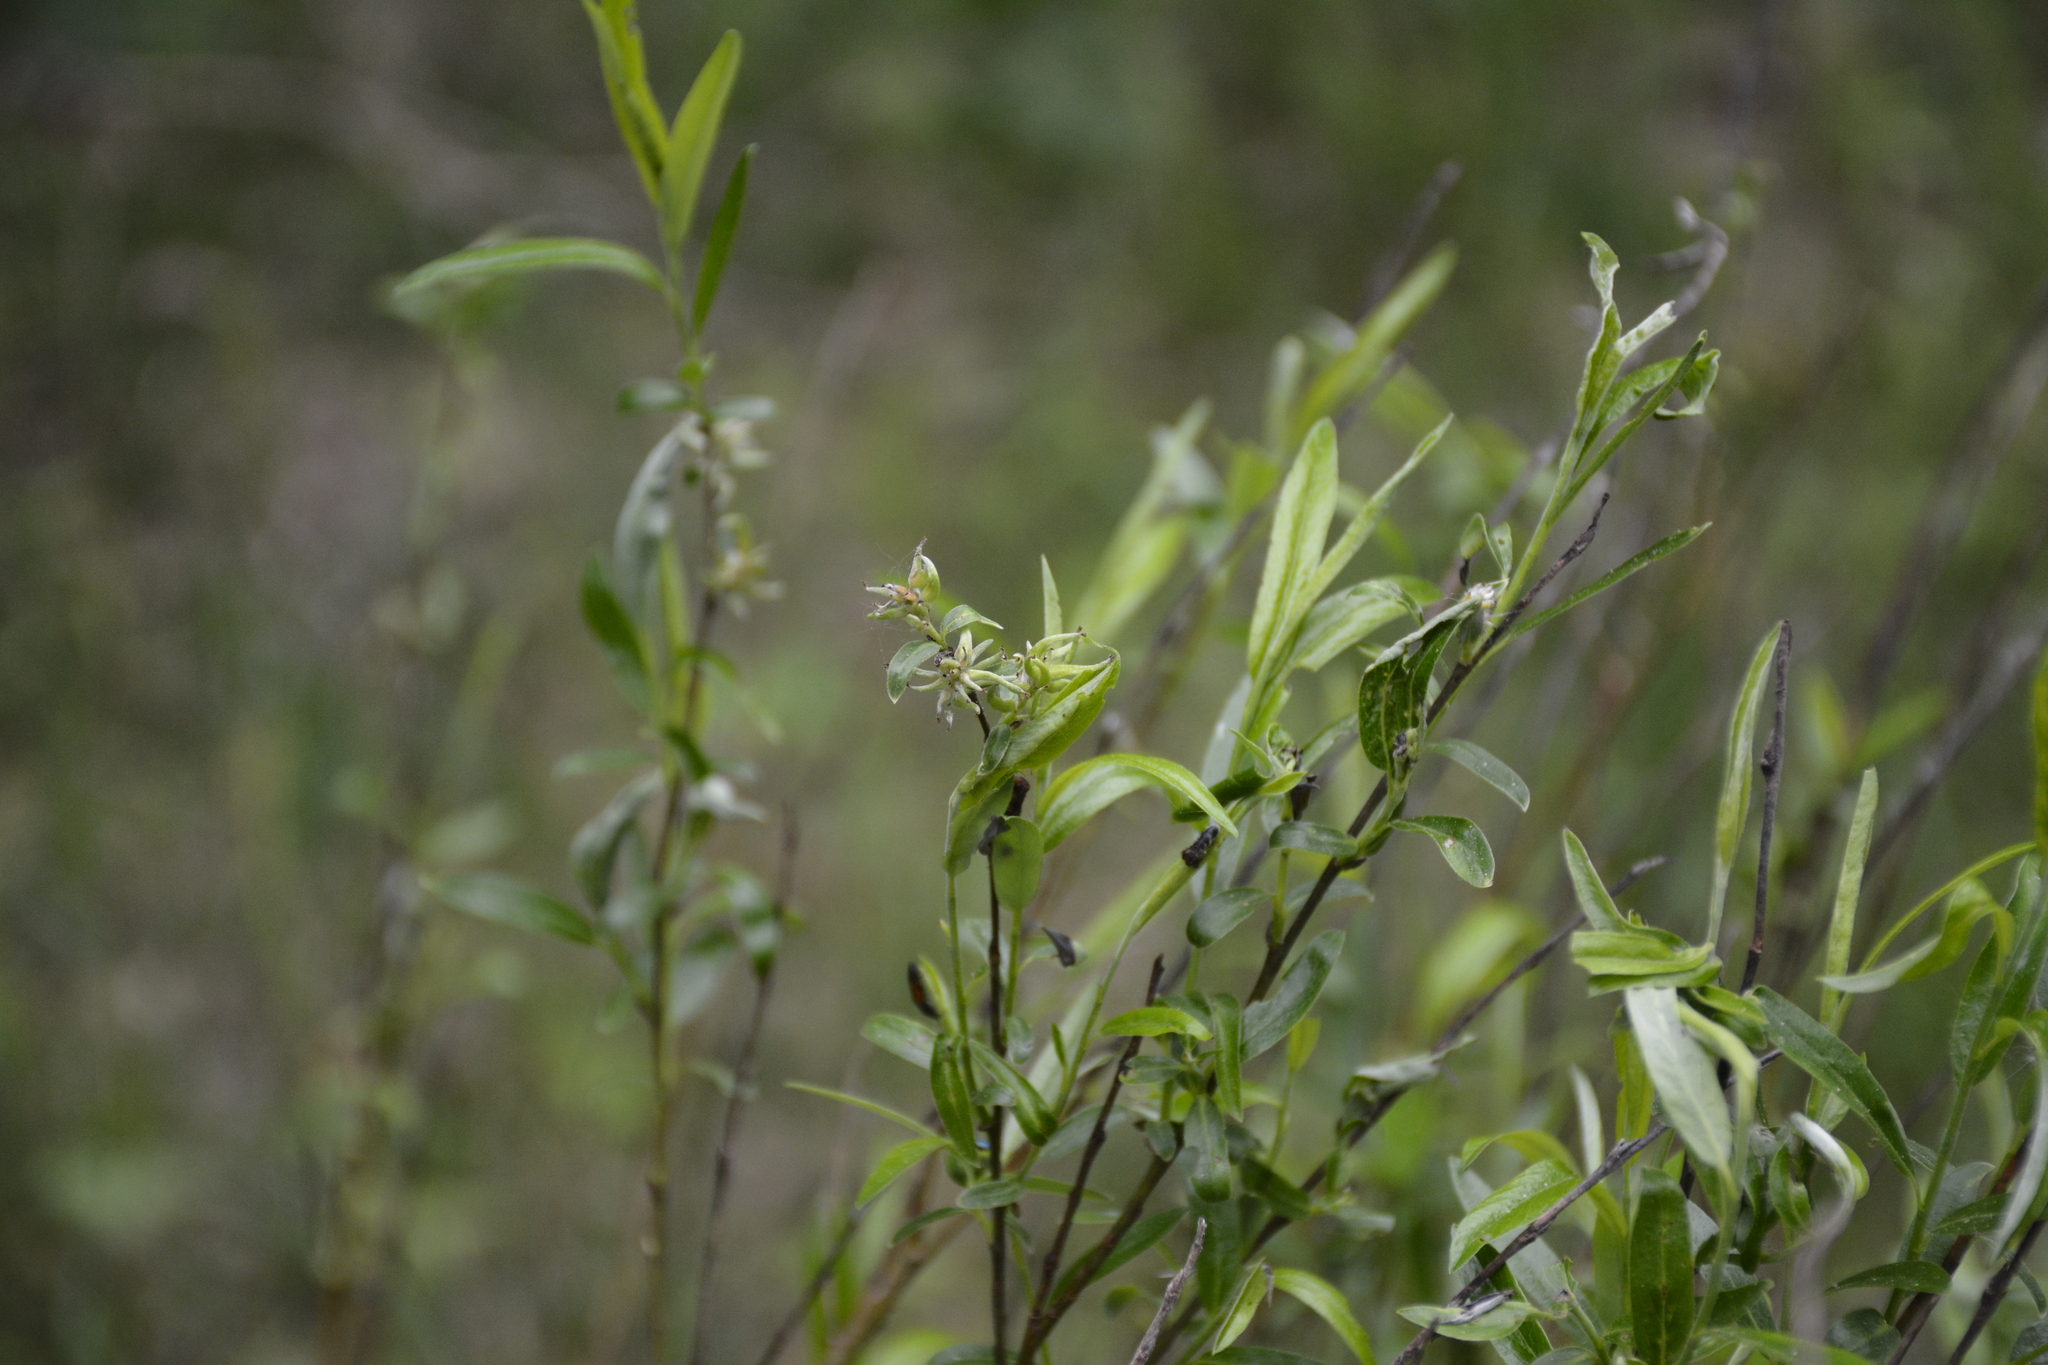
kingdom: Plantae
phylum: Tracheophyta
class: Magnoliopsida
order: Malpighiales
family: Salicaceae
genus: Salix
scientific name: Salix rosmarinifolia
